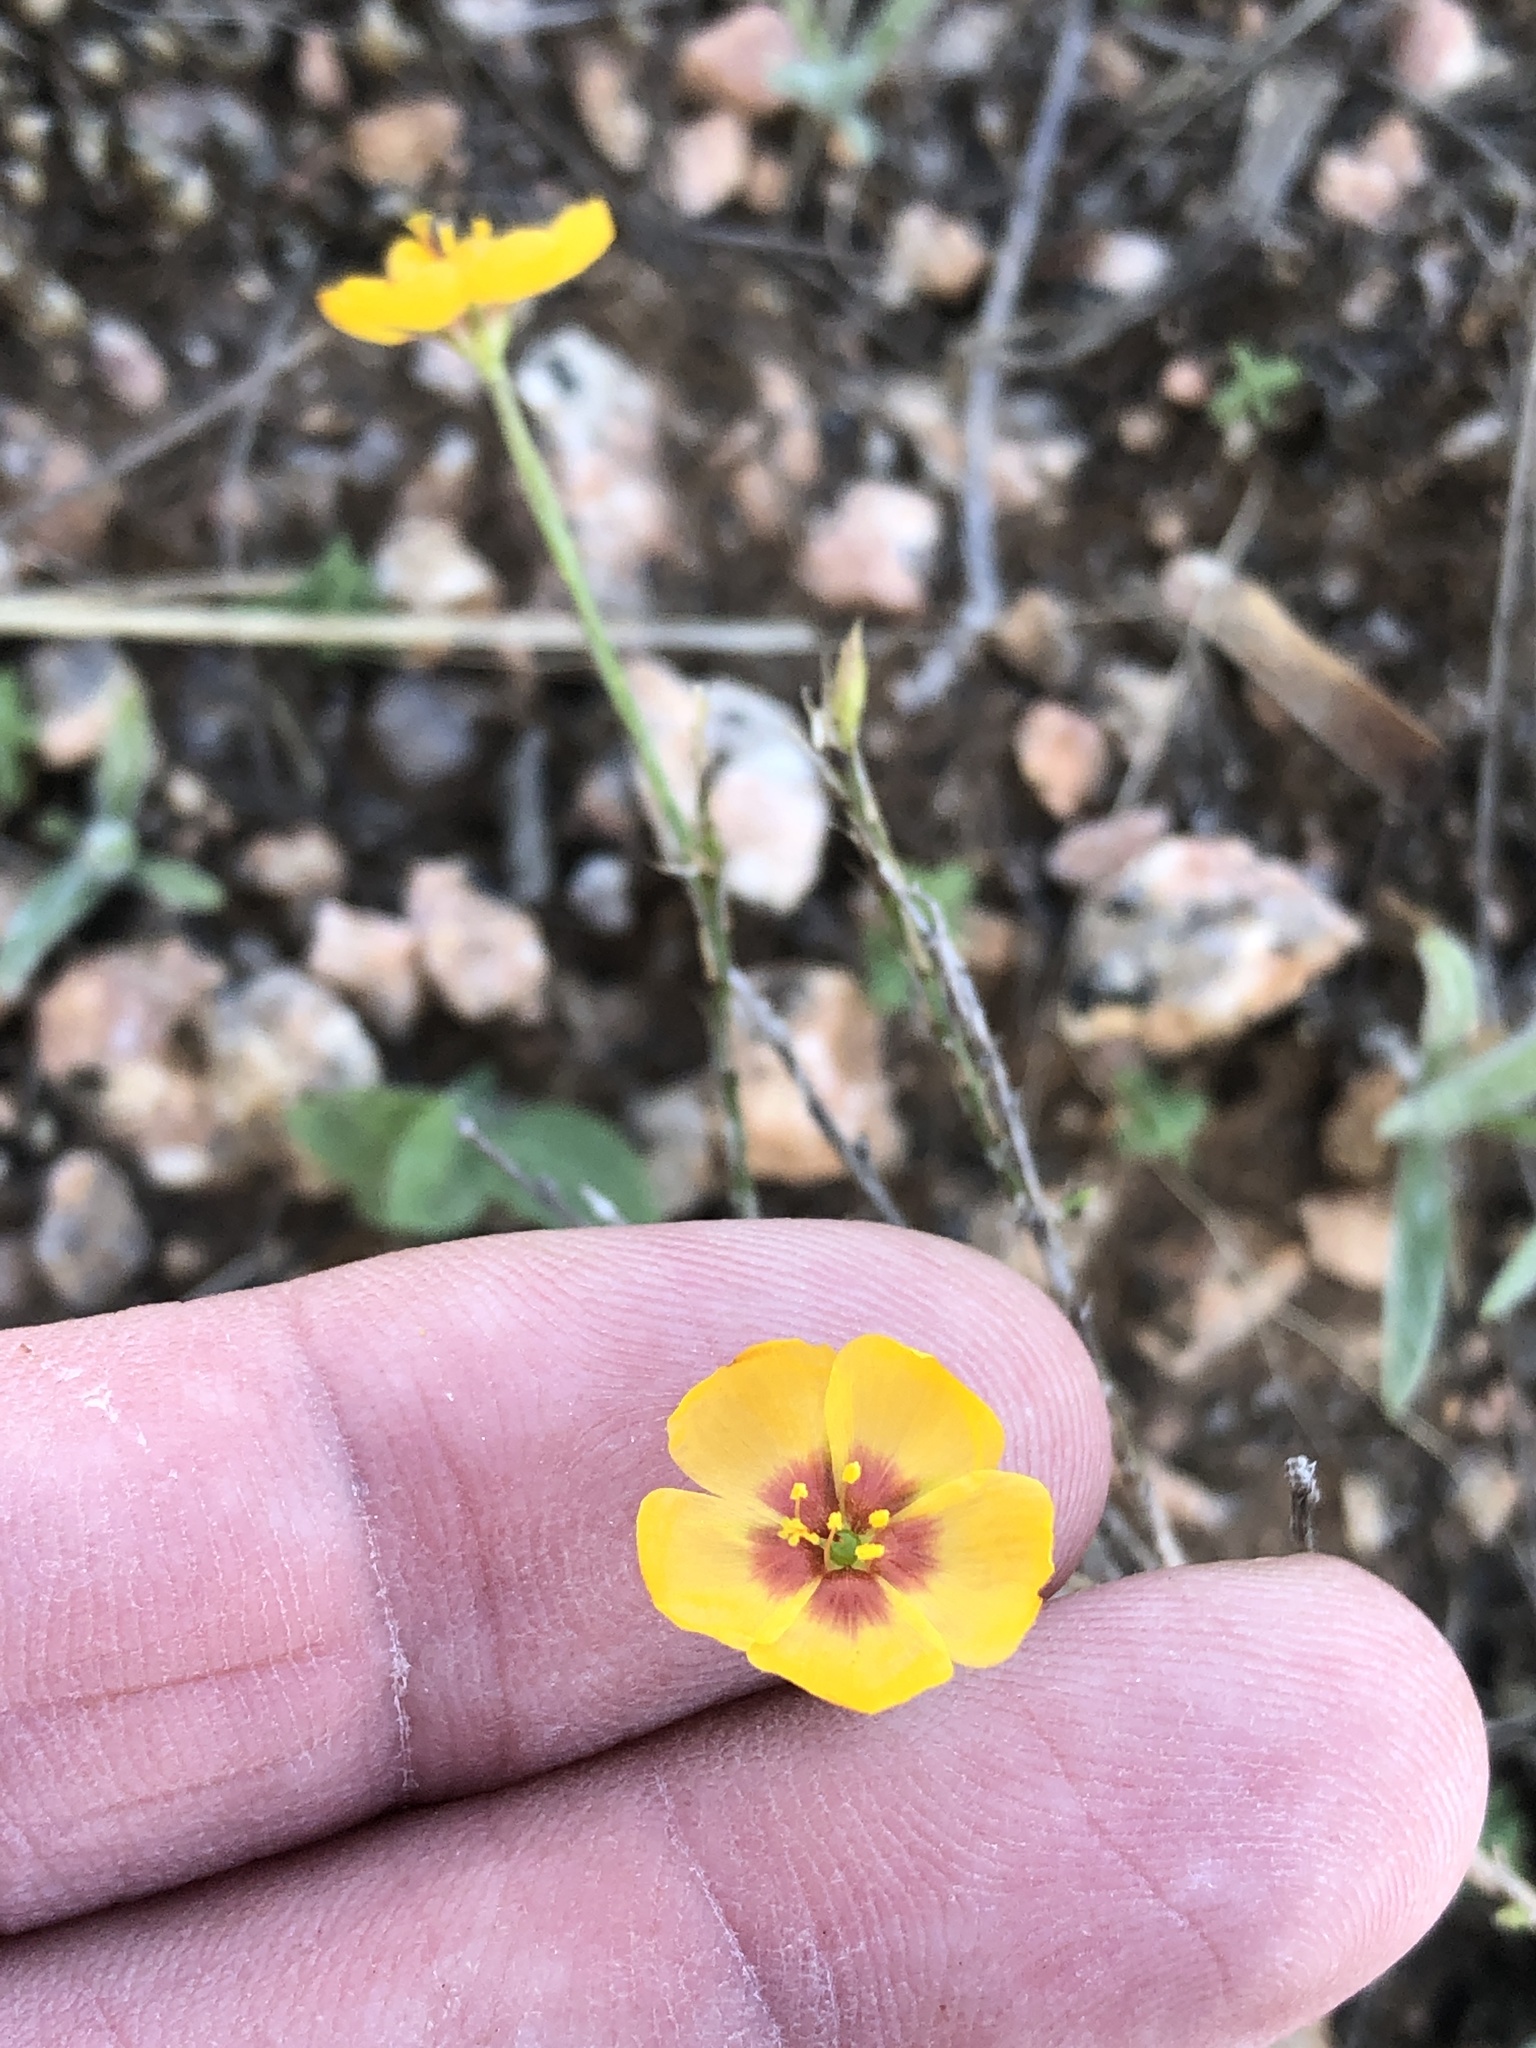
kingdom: Plantae
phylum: Tracheophyta
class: Magnoliopsida
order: Malpighiales
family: Linaceae
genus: Linum
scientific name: Linum hudsonioides
